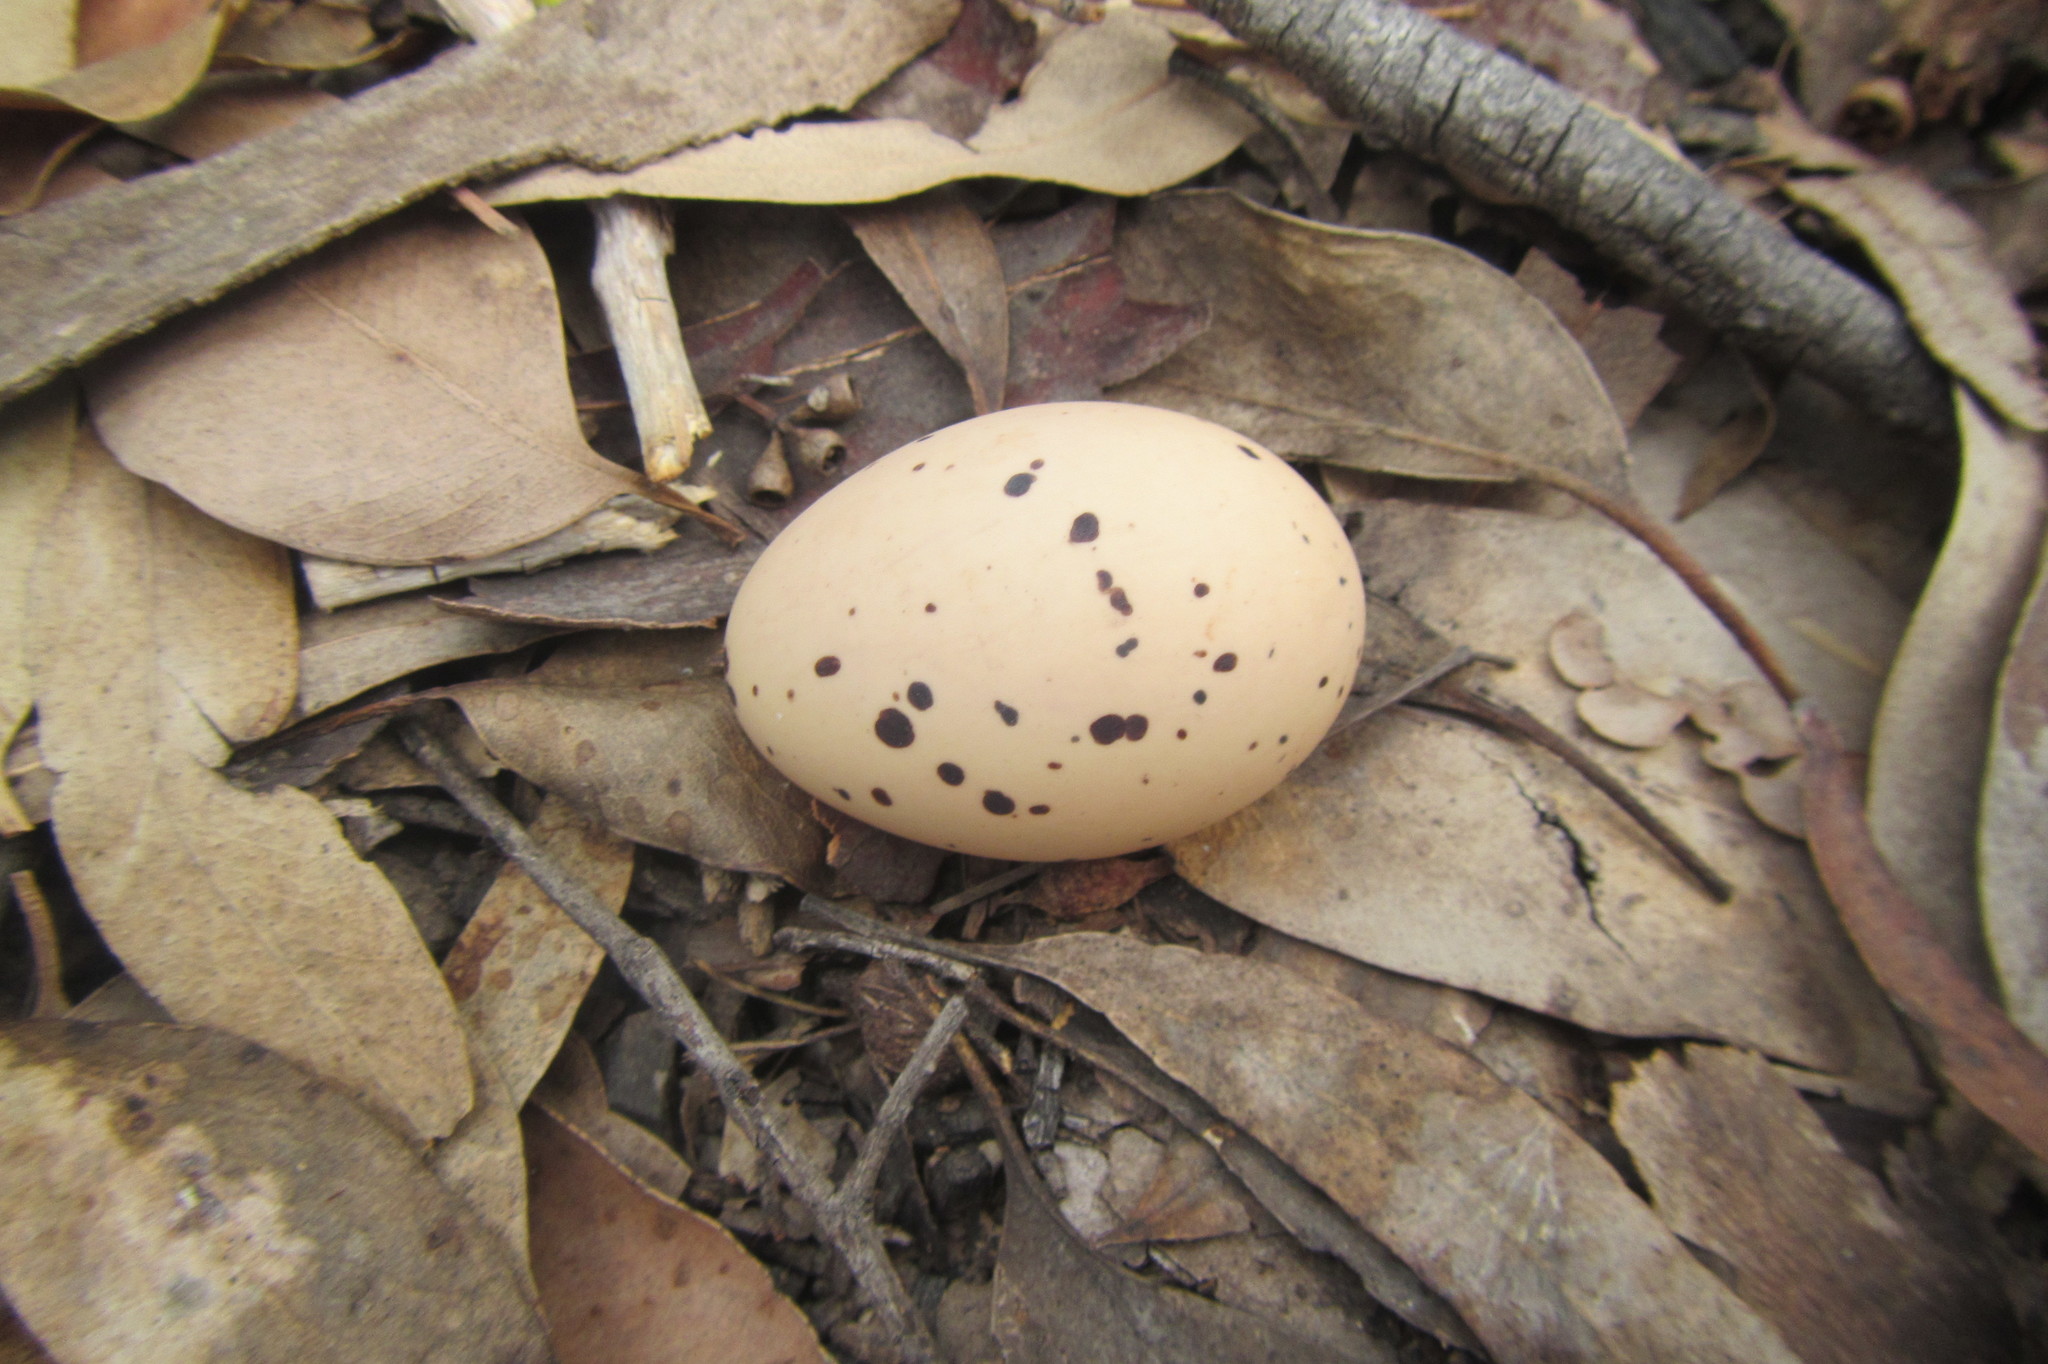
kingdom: Animalia
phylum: Chordata
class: Aves
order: Caprimulgiformes
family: Caprimulgidae
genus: Eurostopodus
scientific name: Eurostopodus mystacalis
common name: White-throated nightjar
